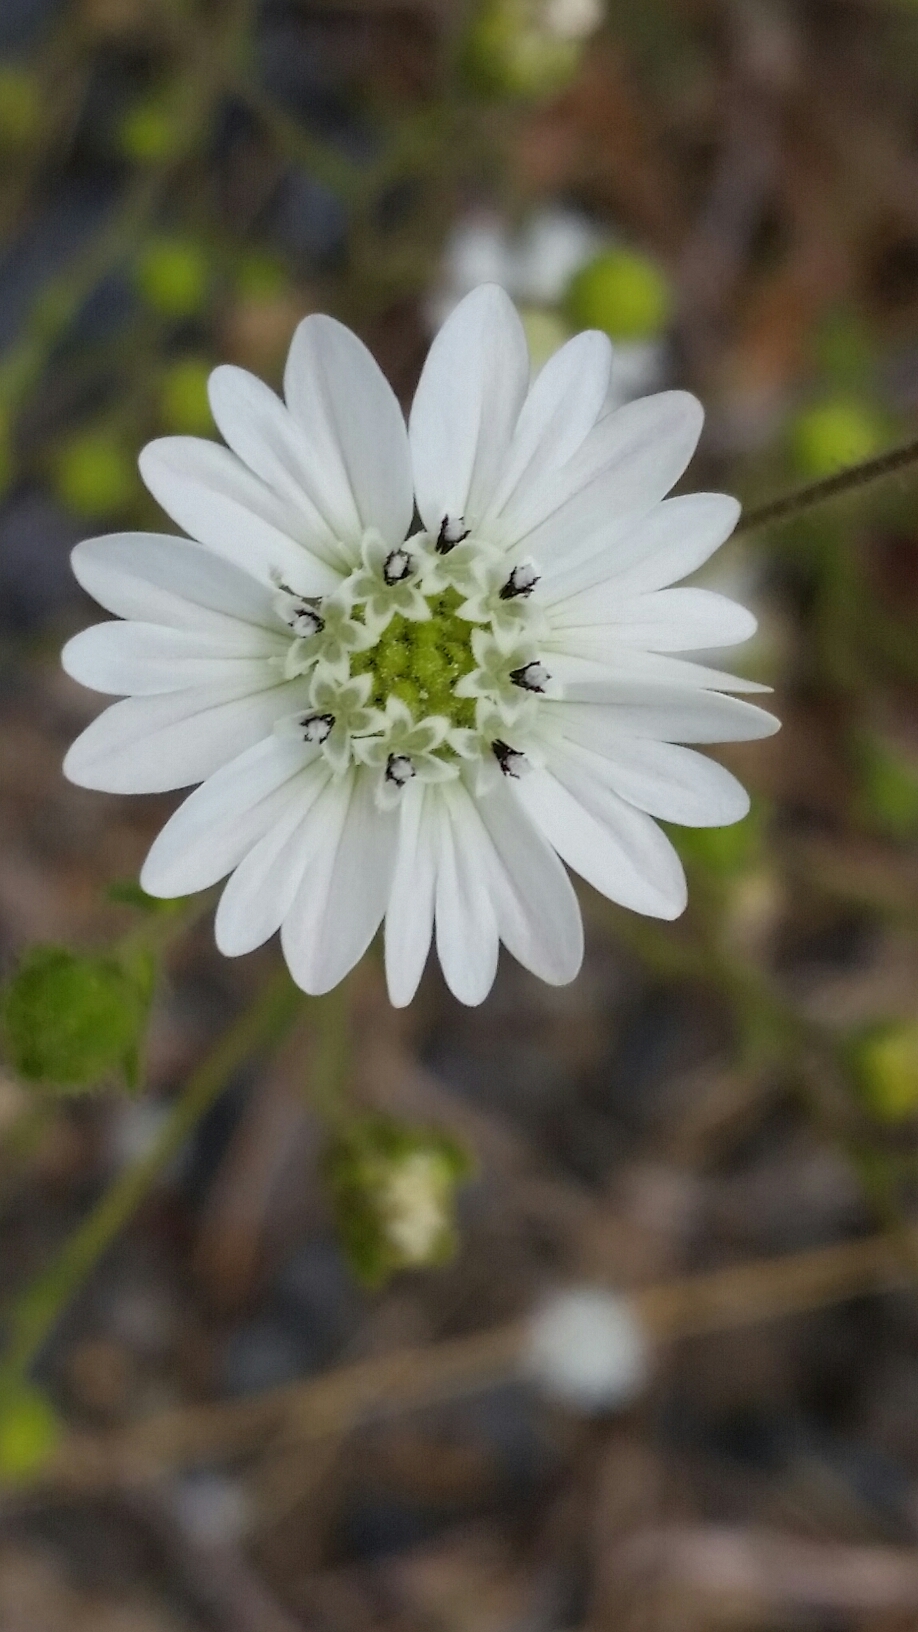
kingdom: Plantae
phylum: Tracheophyta
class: Magnoliopsida
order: Asterales
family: Asteraceae
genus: Hemizonia
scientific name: Hemizonia congesta
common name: Hayfield tarweed
